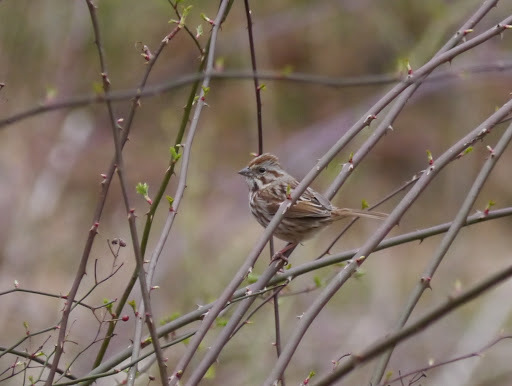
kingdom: Animalia
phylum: Chordata
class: Aves
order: Passeriformes
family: Passerellidae
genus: Melospiza
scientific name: Melospiza melodia
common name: Song sparrow
